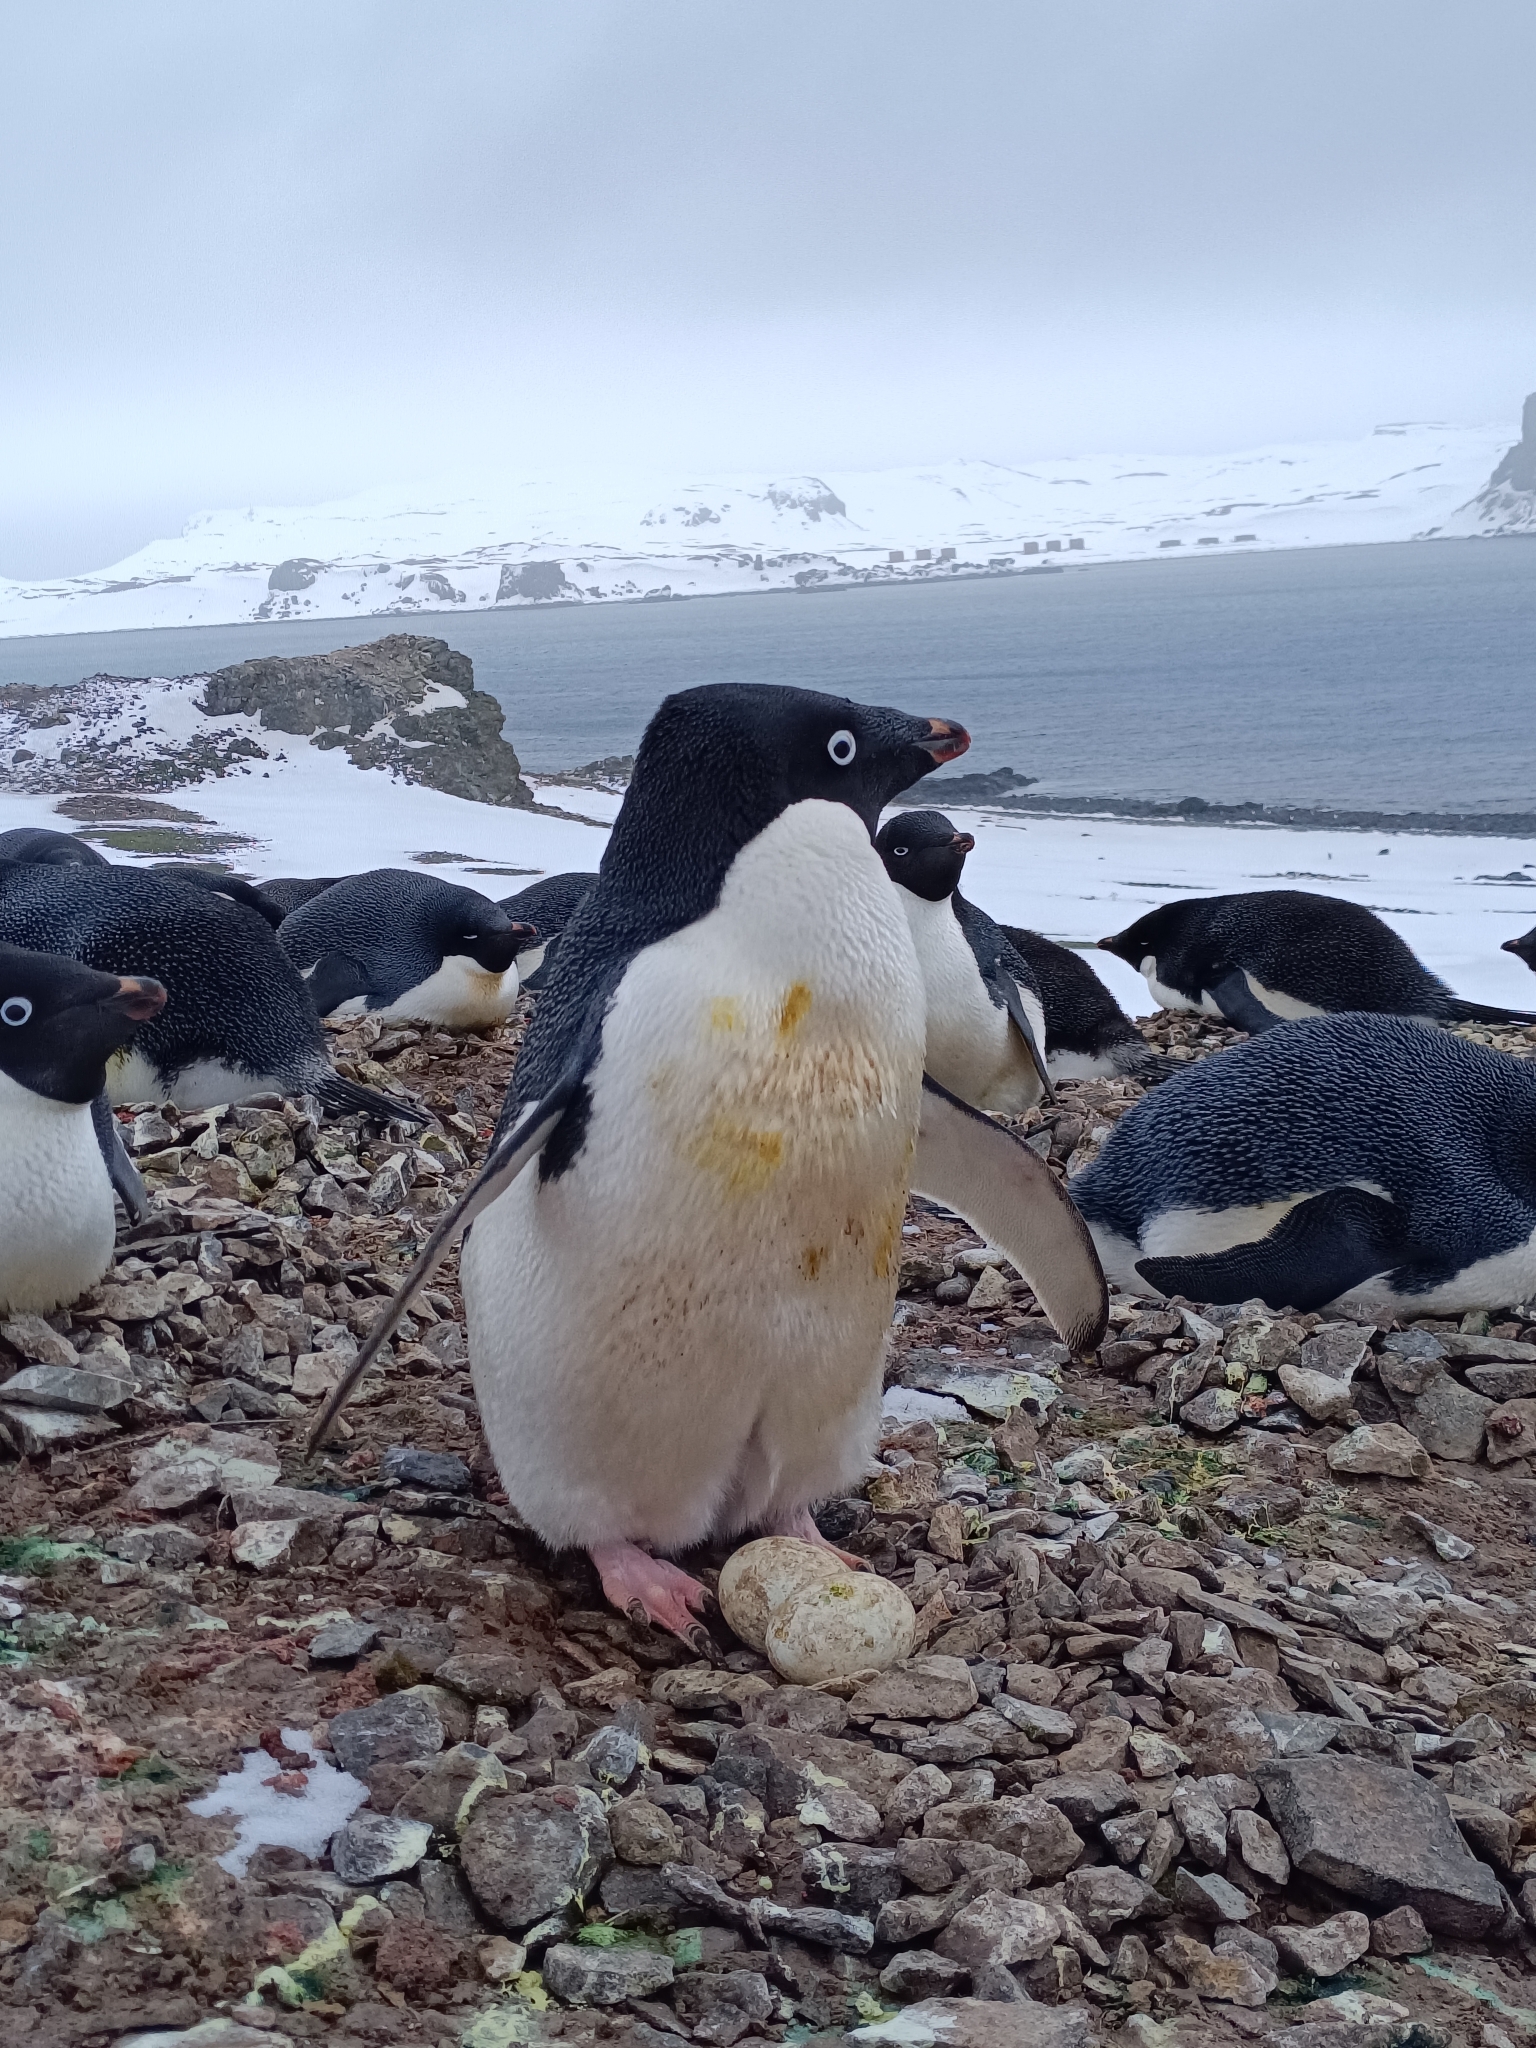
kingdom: Animalia
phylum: Chordata
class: Aves
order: Sphenisciformes
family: Spheniscidae
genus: Pygoscelis
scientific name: Pygoscelis adeliae
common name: Adelie penguin
